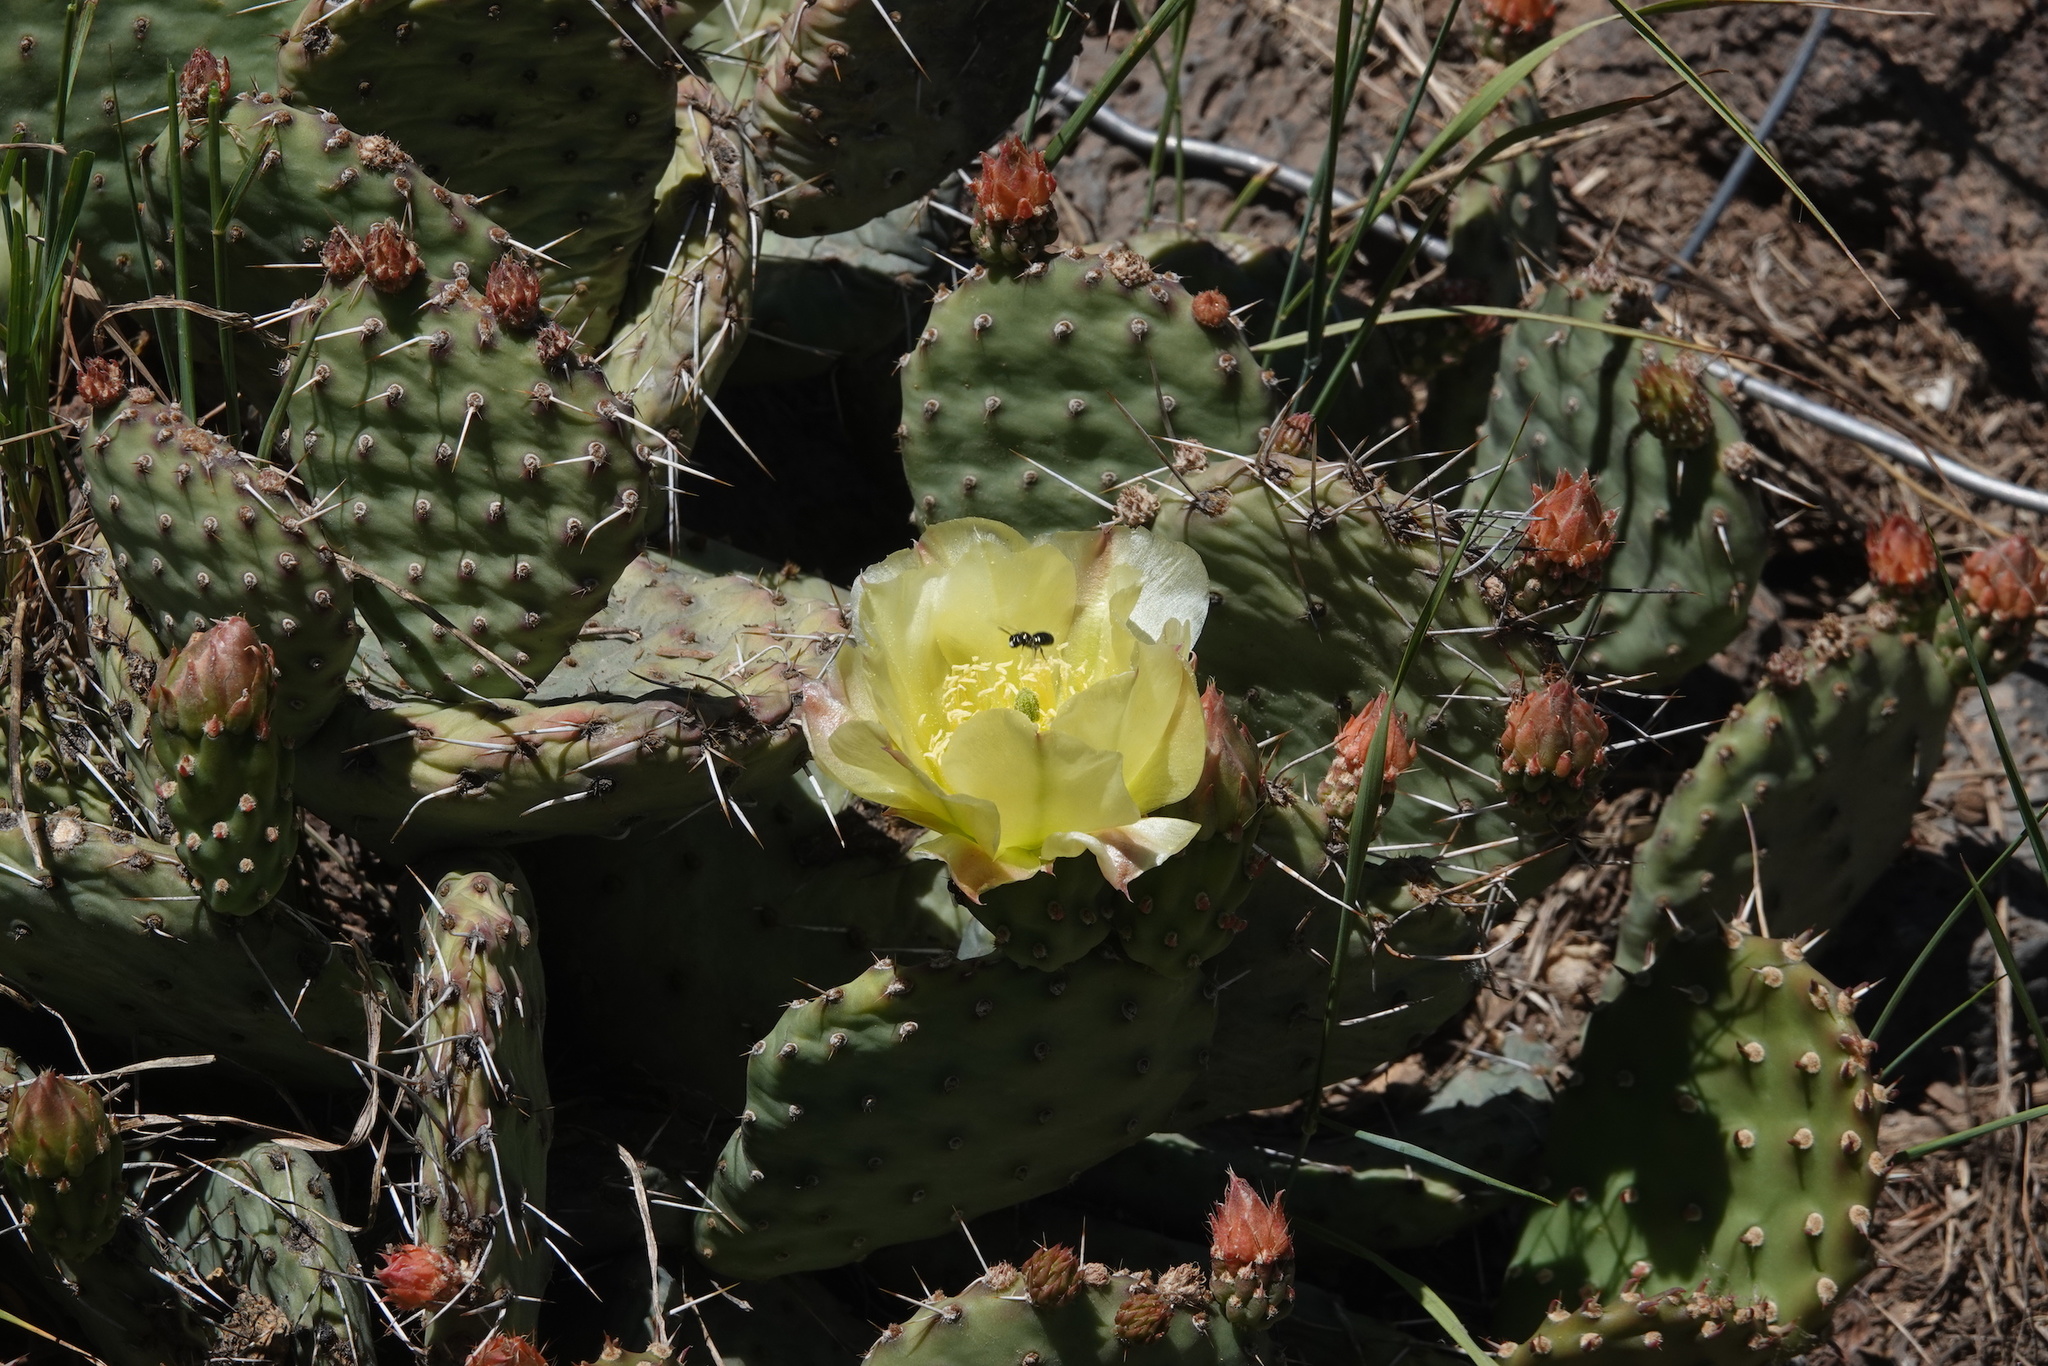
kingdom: Plantae
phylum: Tracheophyta
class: Magnoliopsida
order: Caryophyllales
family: Cactaceae
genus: Opuntia
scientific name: Opuntia aurea
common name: Golden prickly-pear
